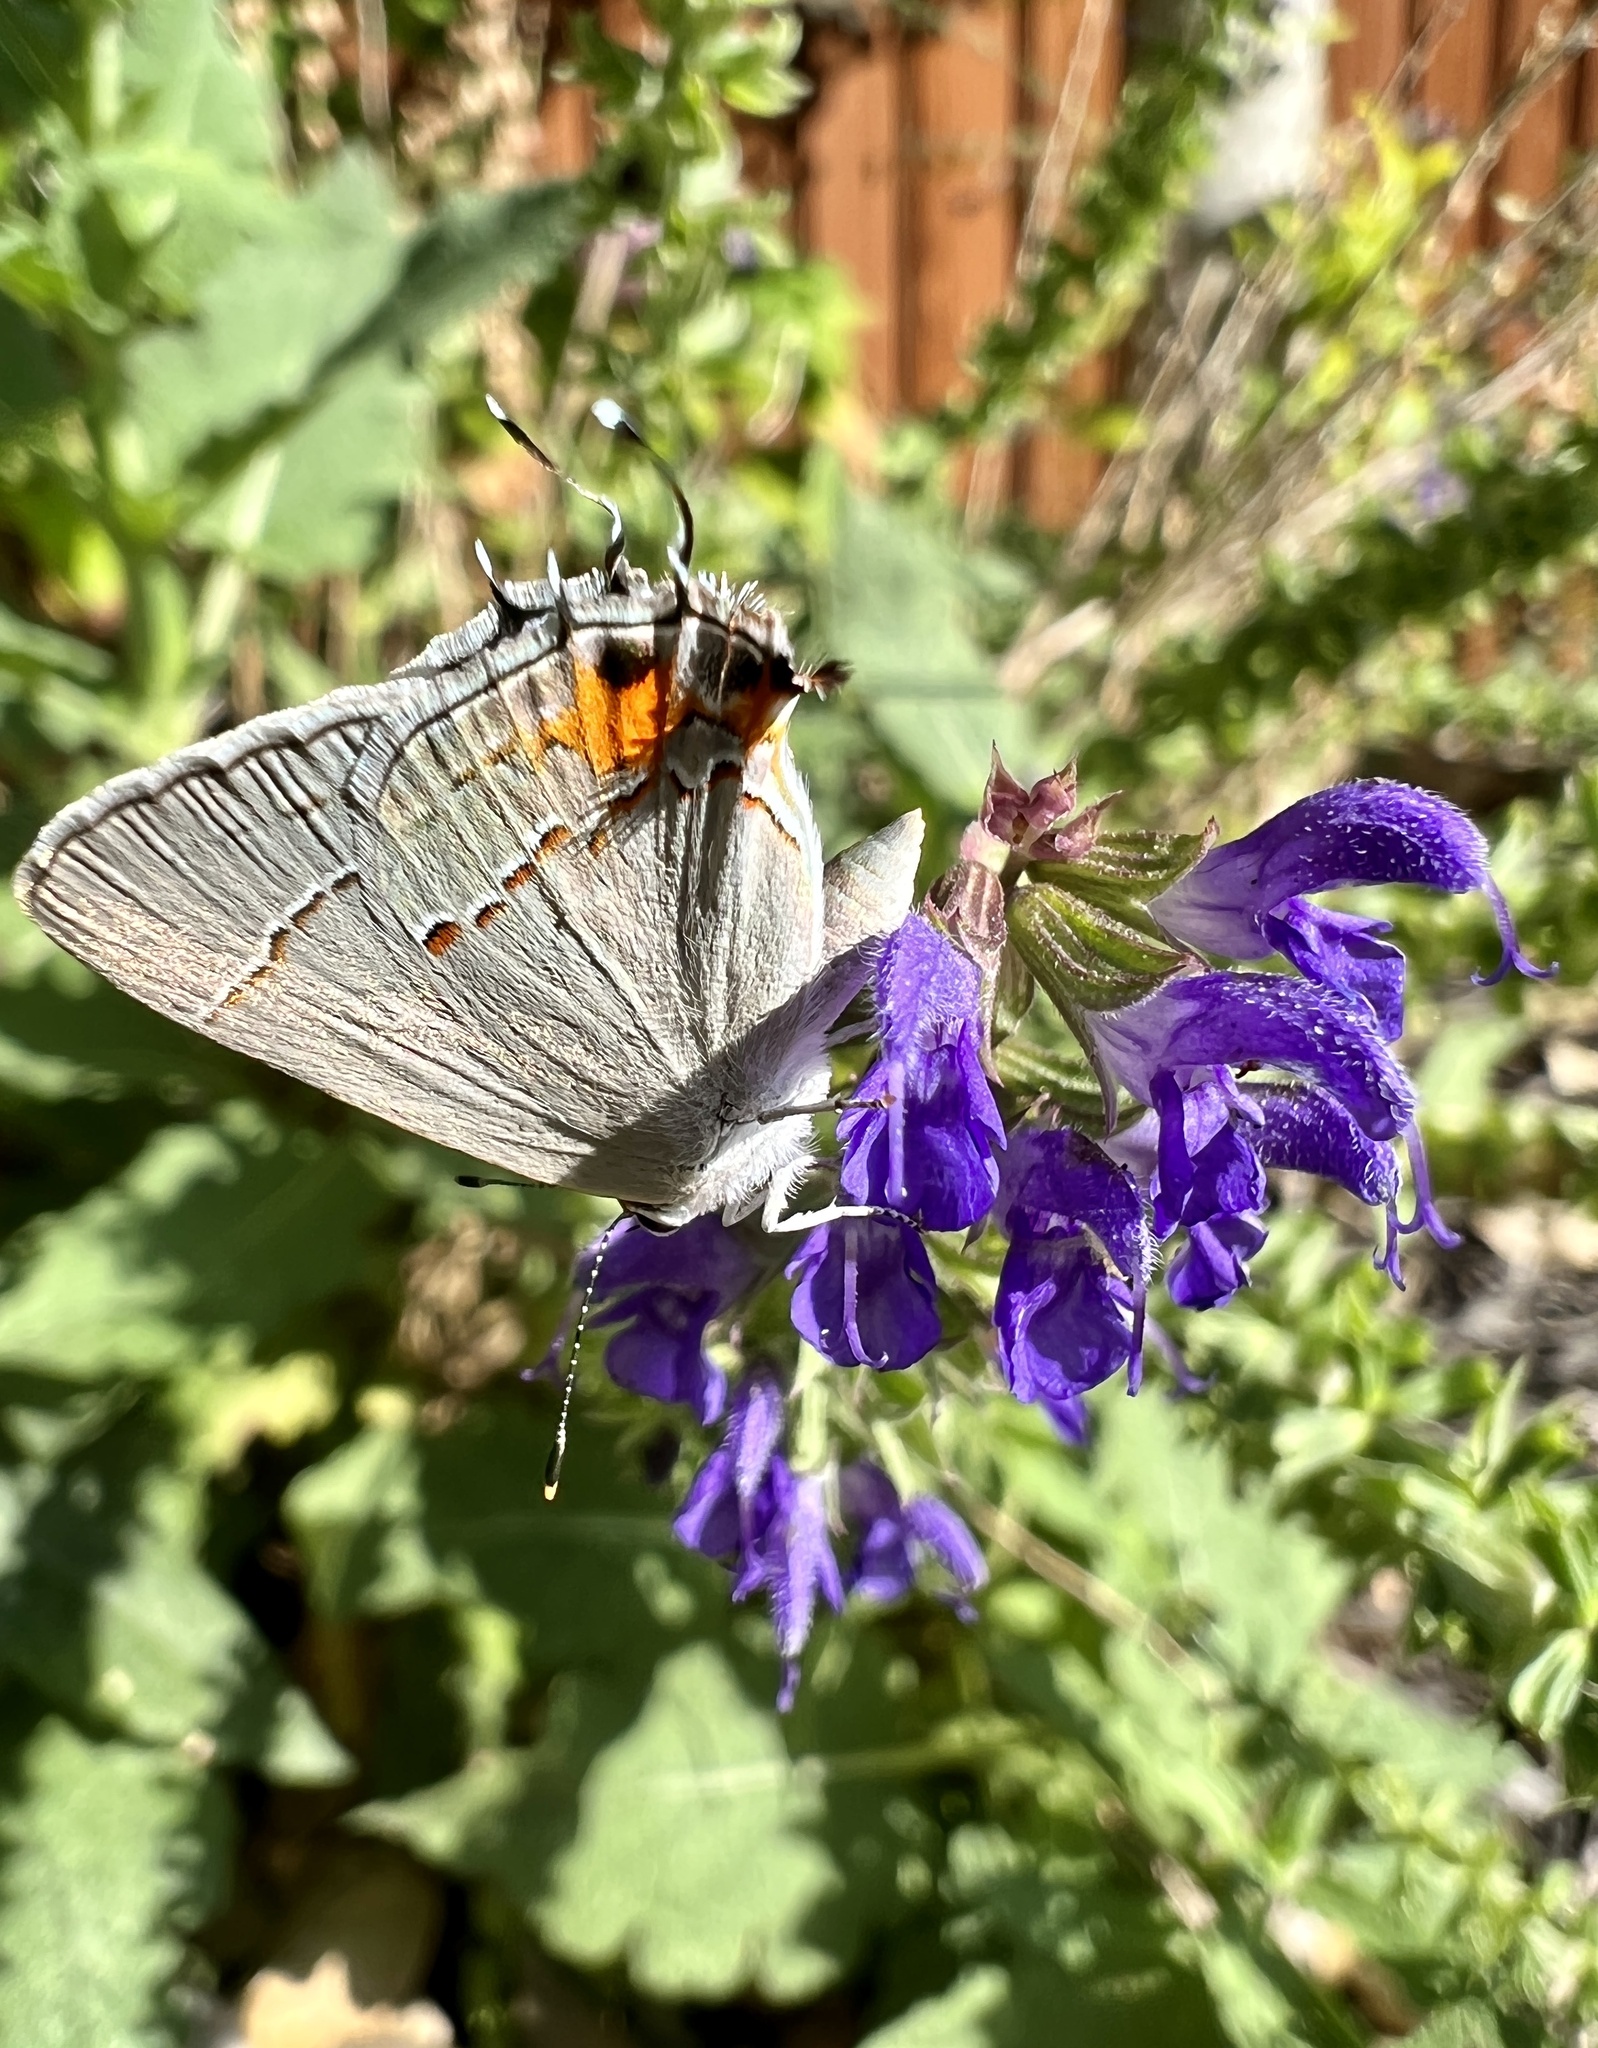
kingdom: Animalia
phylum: Arthropoda
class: Insecta
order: Lepidoptera
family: Lycaenidae
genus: Strymon
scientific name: Strymon melinus
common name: Gray hairstreak
